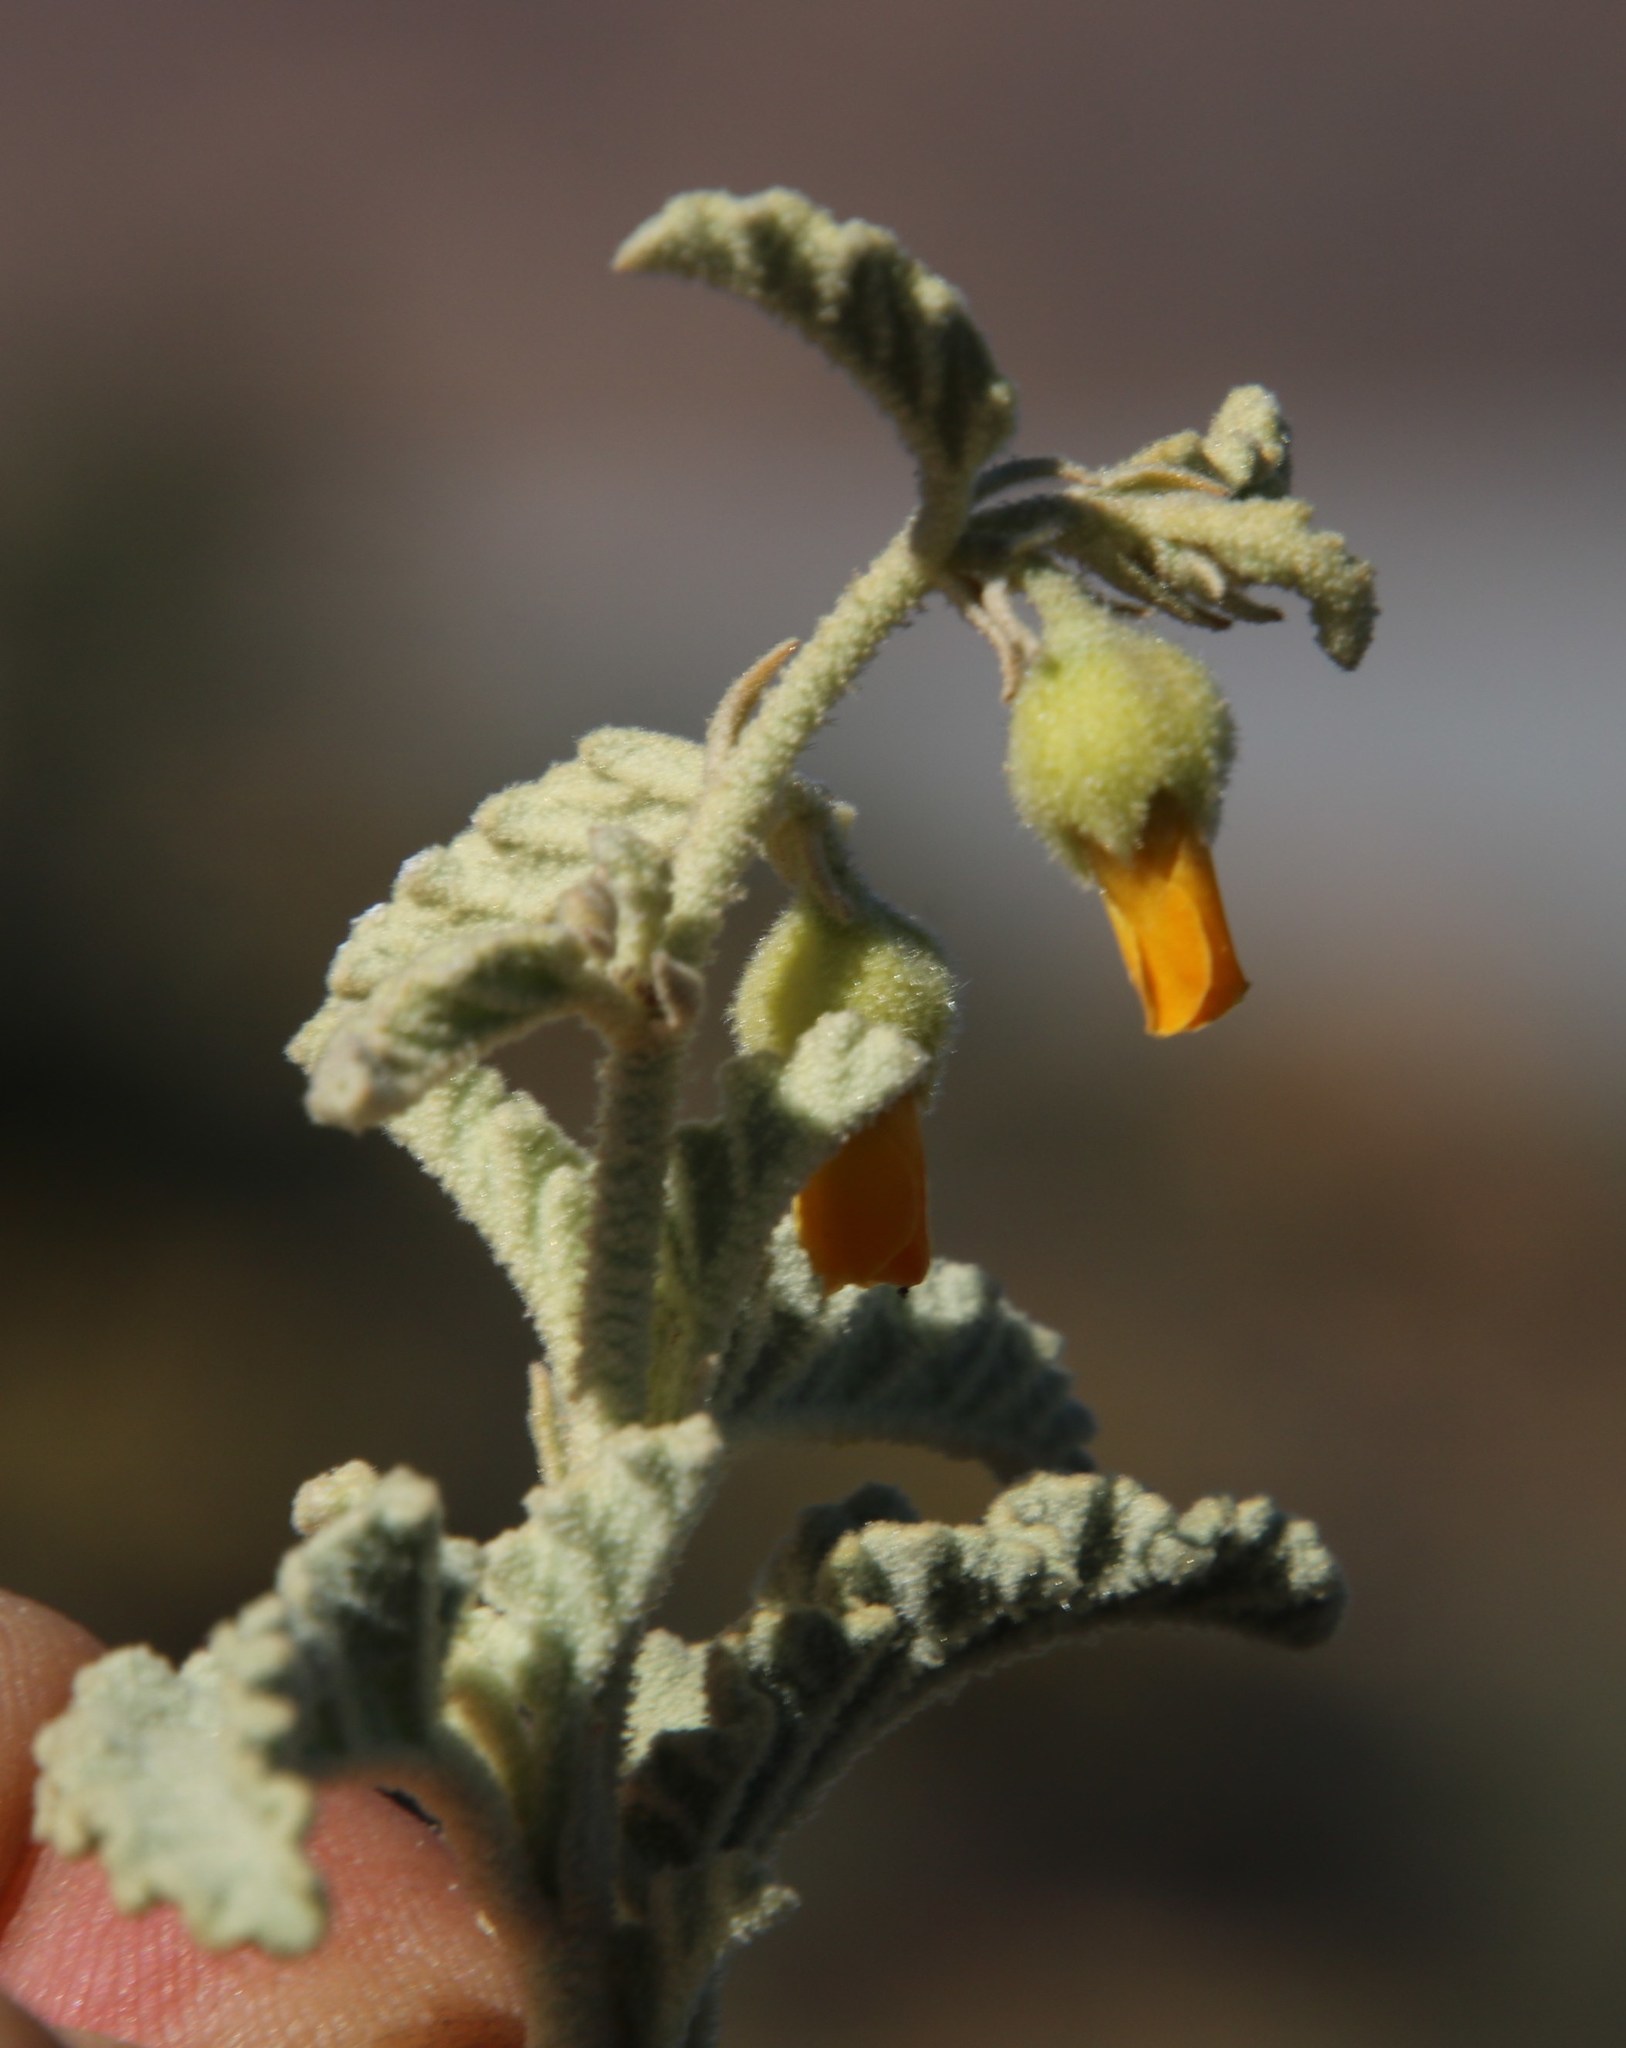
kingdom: Plantae
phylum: Tracheophyta
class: Magnoliopsida
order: Malvales
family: Malvaceae
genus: Hermannia
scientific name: Hermannia amoena
